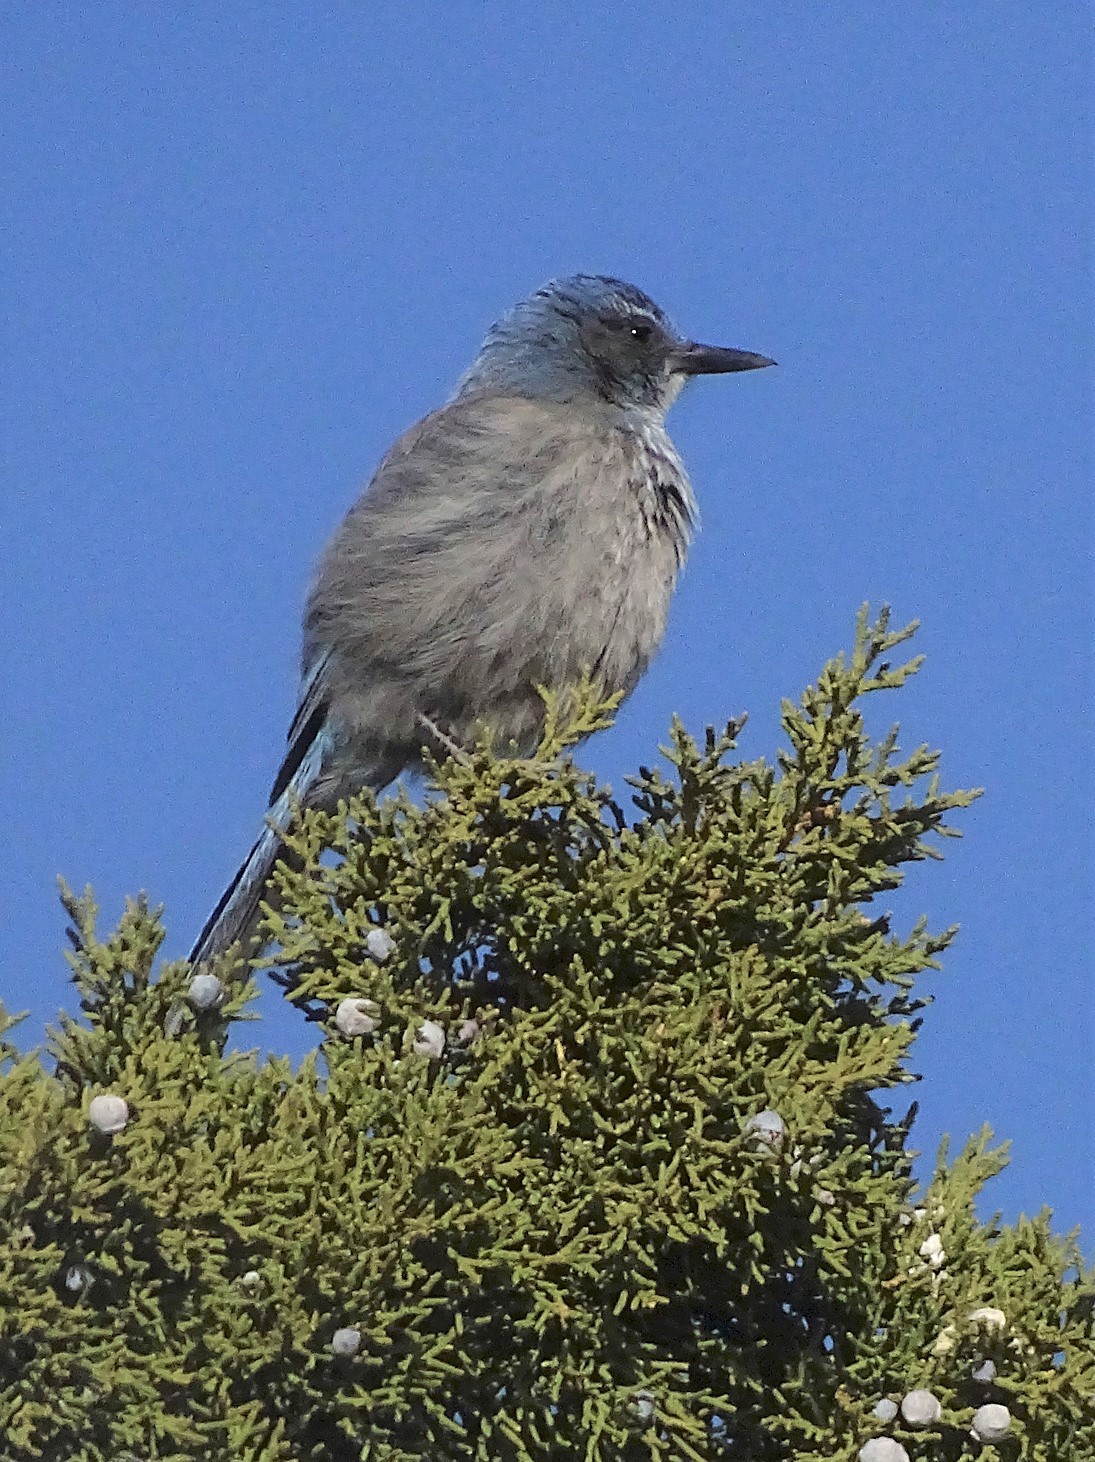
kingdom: Animalia
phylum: Chordata
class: Aves
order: Passeriformes
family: Corvidae
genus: Aphelocoma
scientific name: Aphelocoma woodhouseii
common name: Woodhouse's scrub-jay
